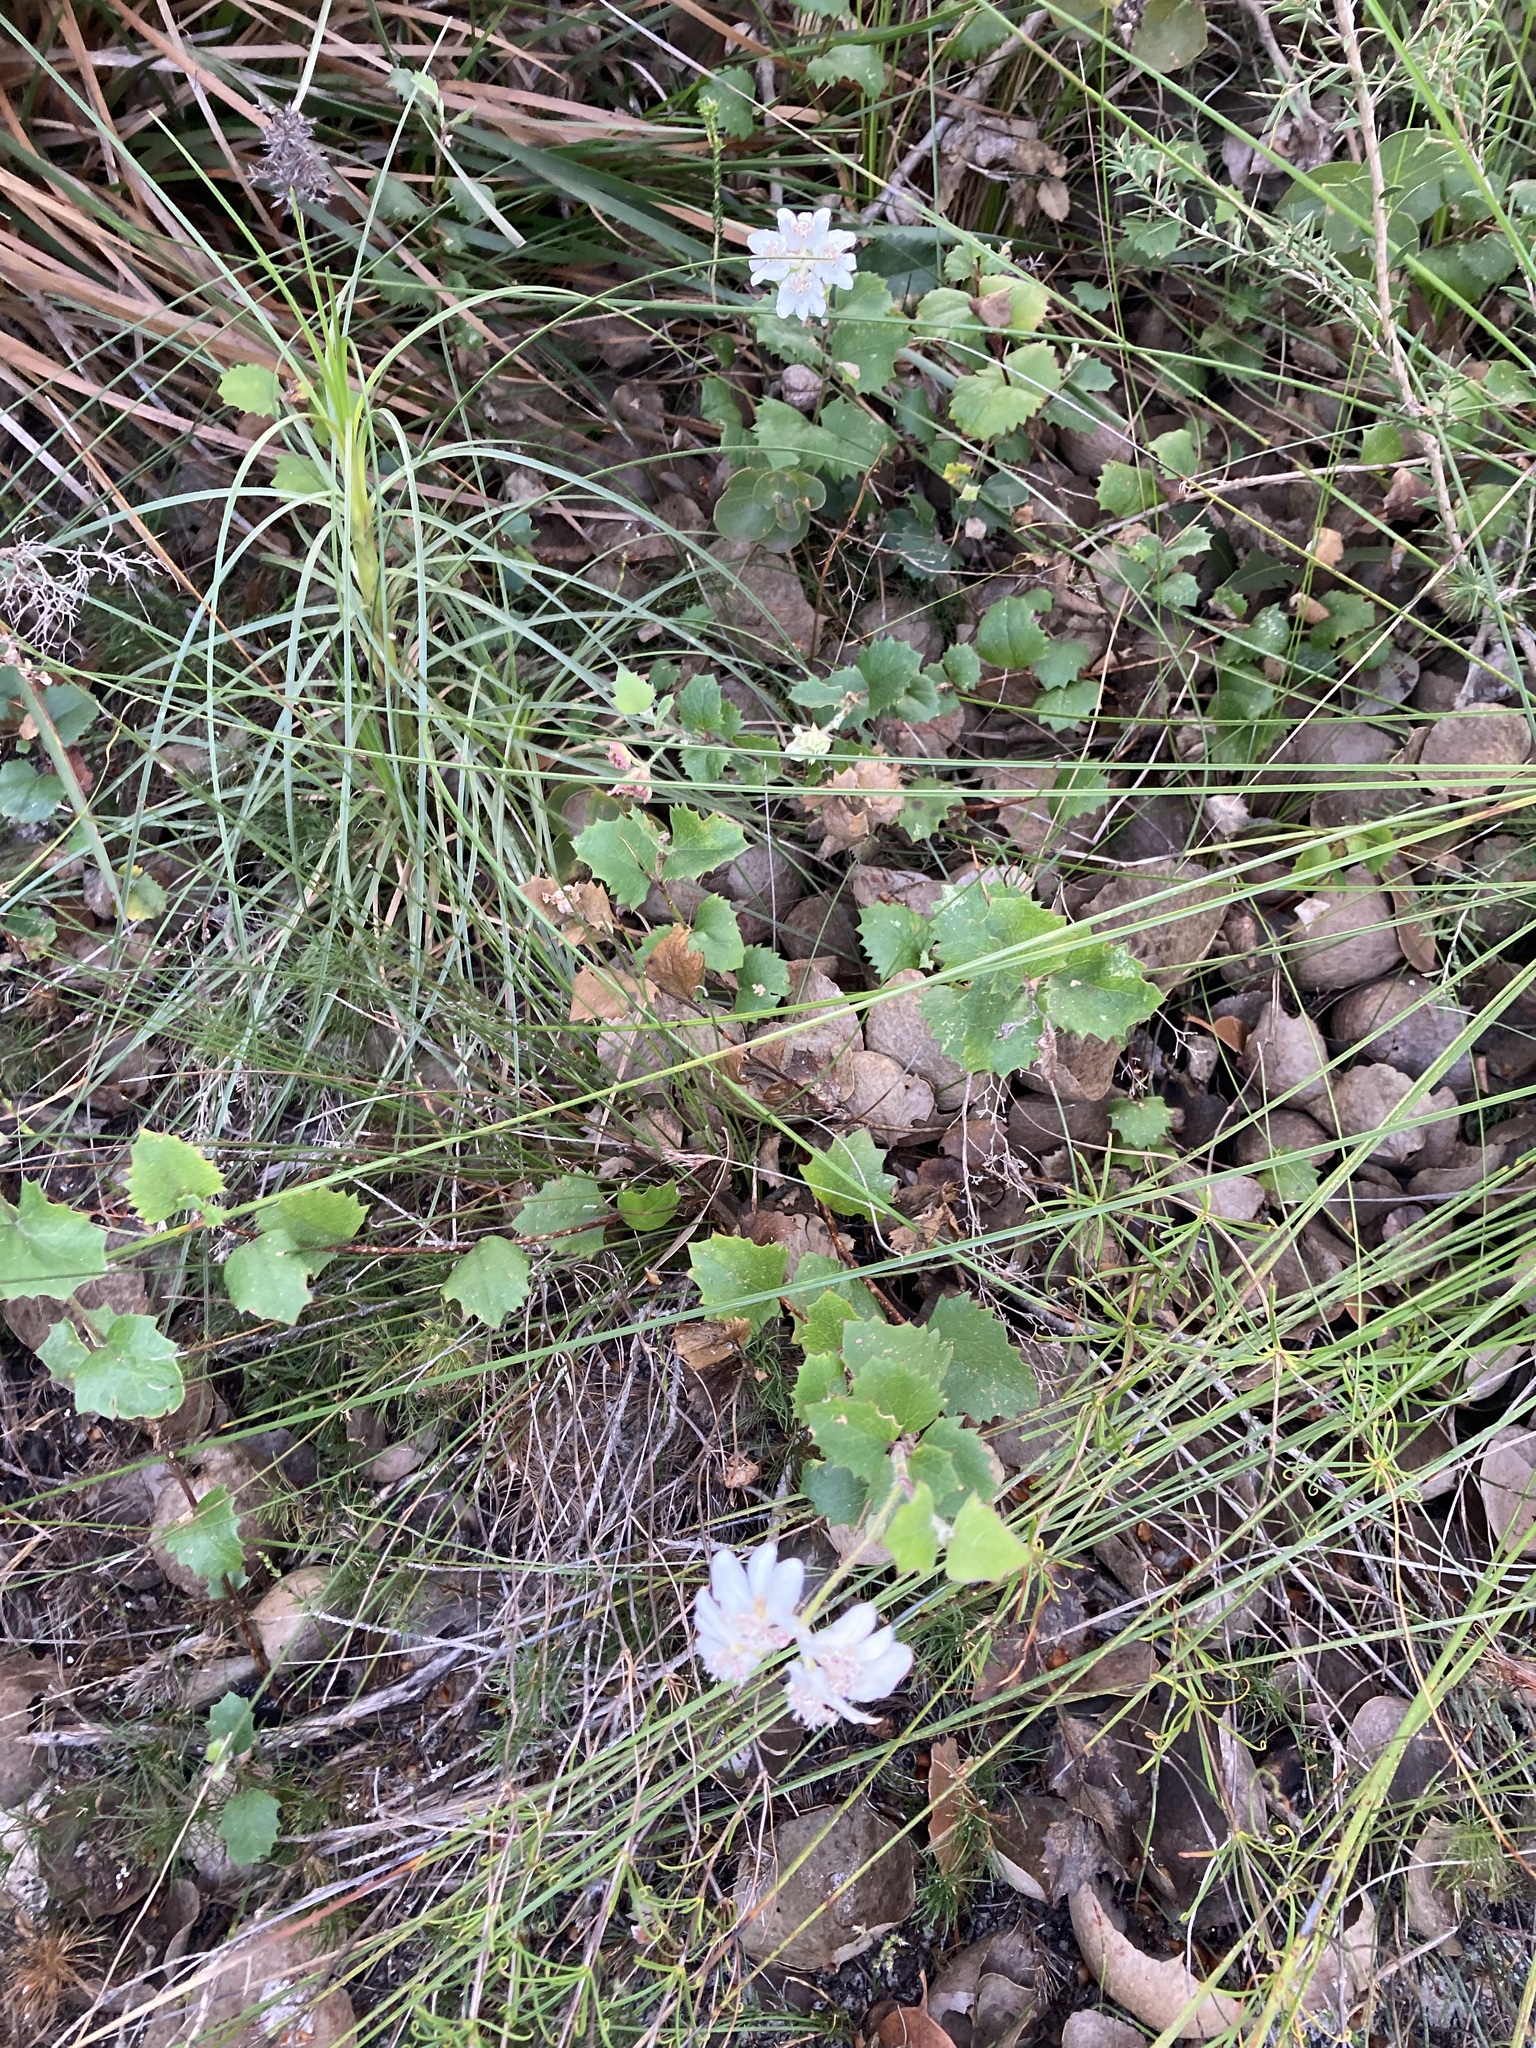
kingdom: Plantae
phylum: Tracheophyta
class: Magnoliopsida
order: Apiales
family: Apiaceae
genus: Xanthosia
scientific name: Xanthosia rotundifolia
